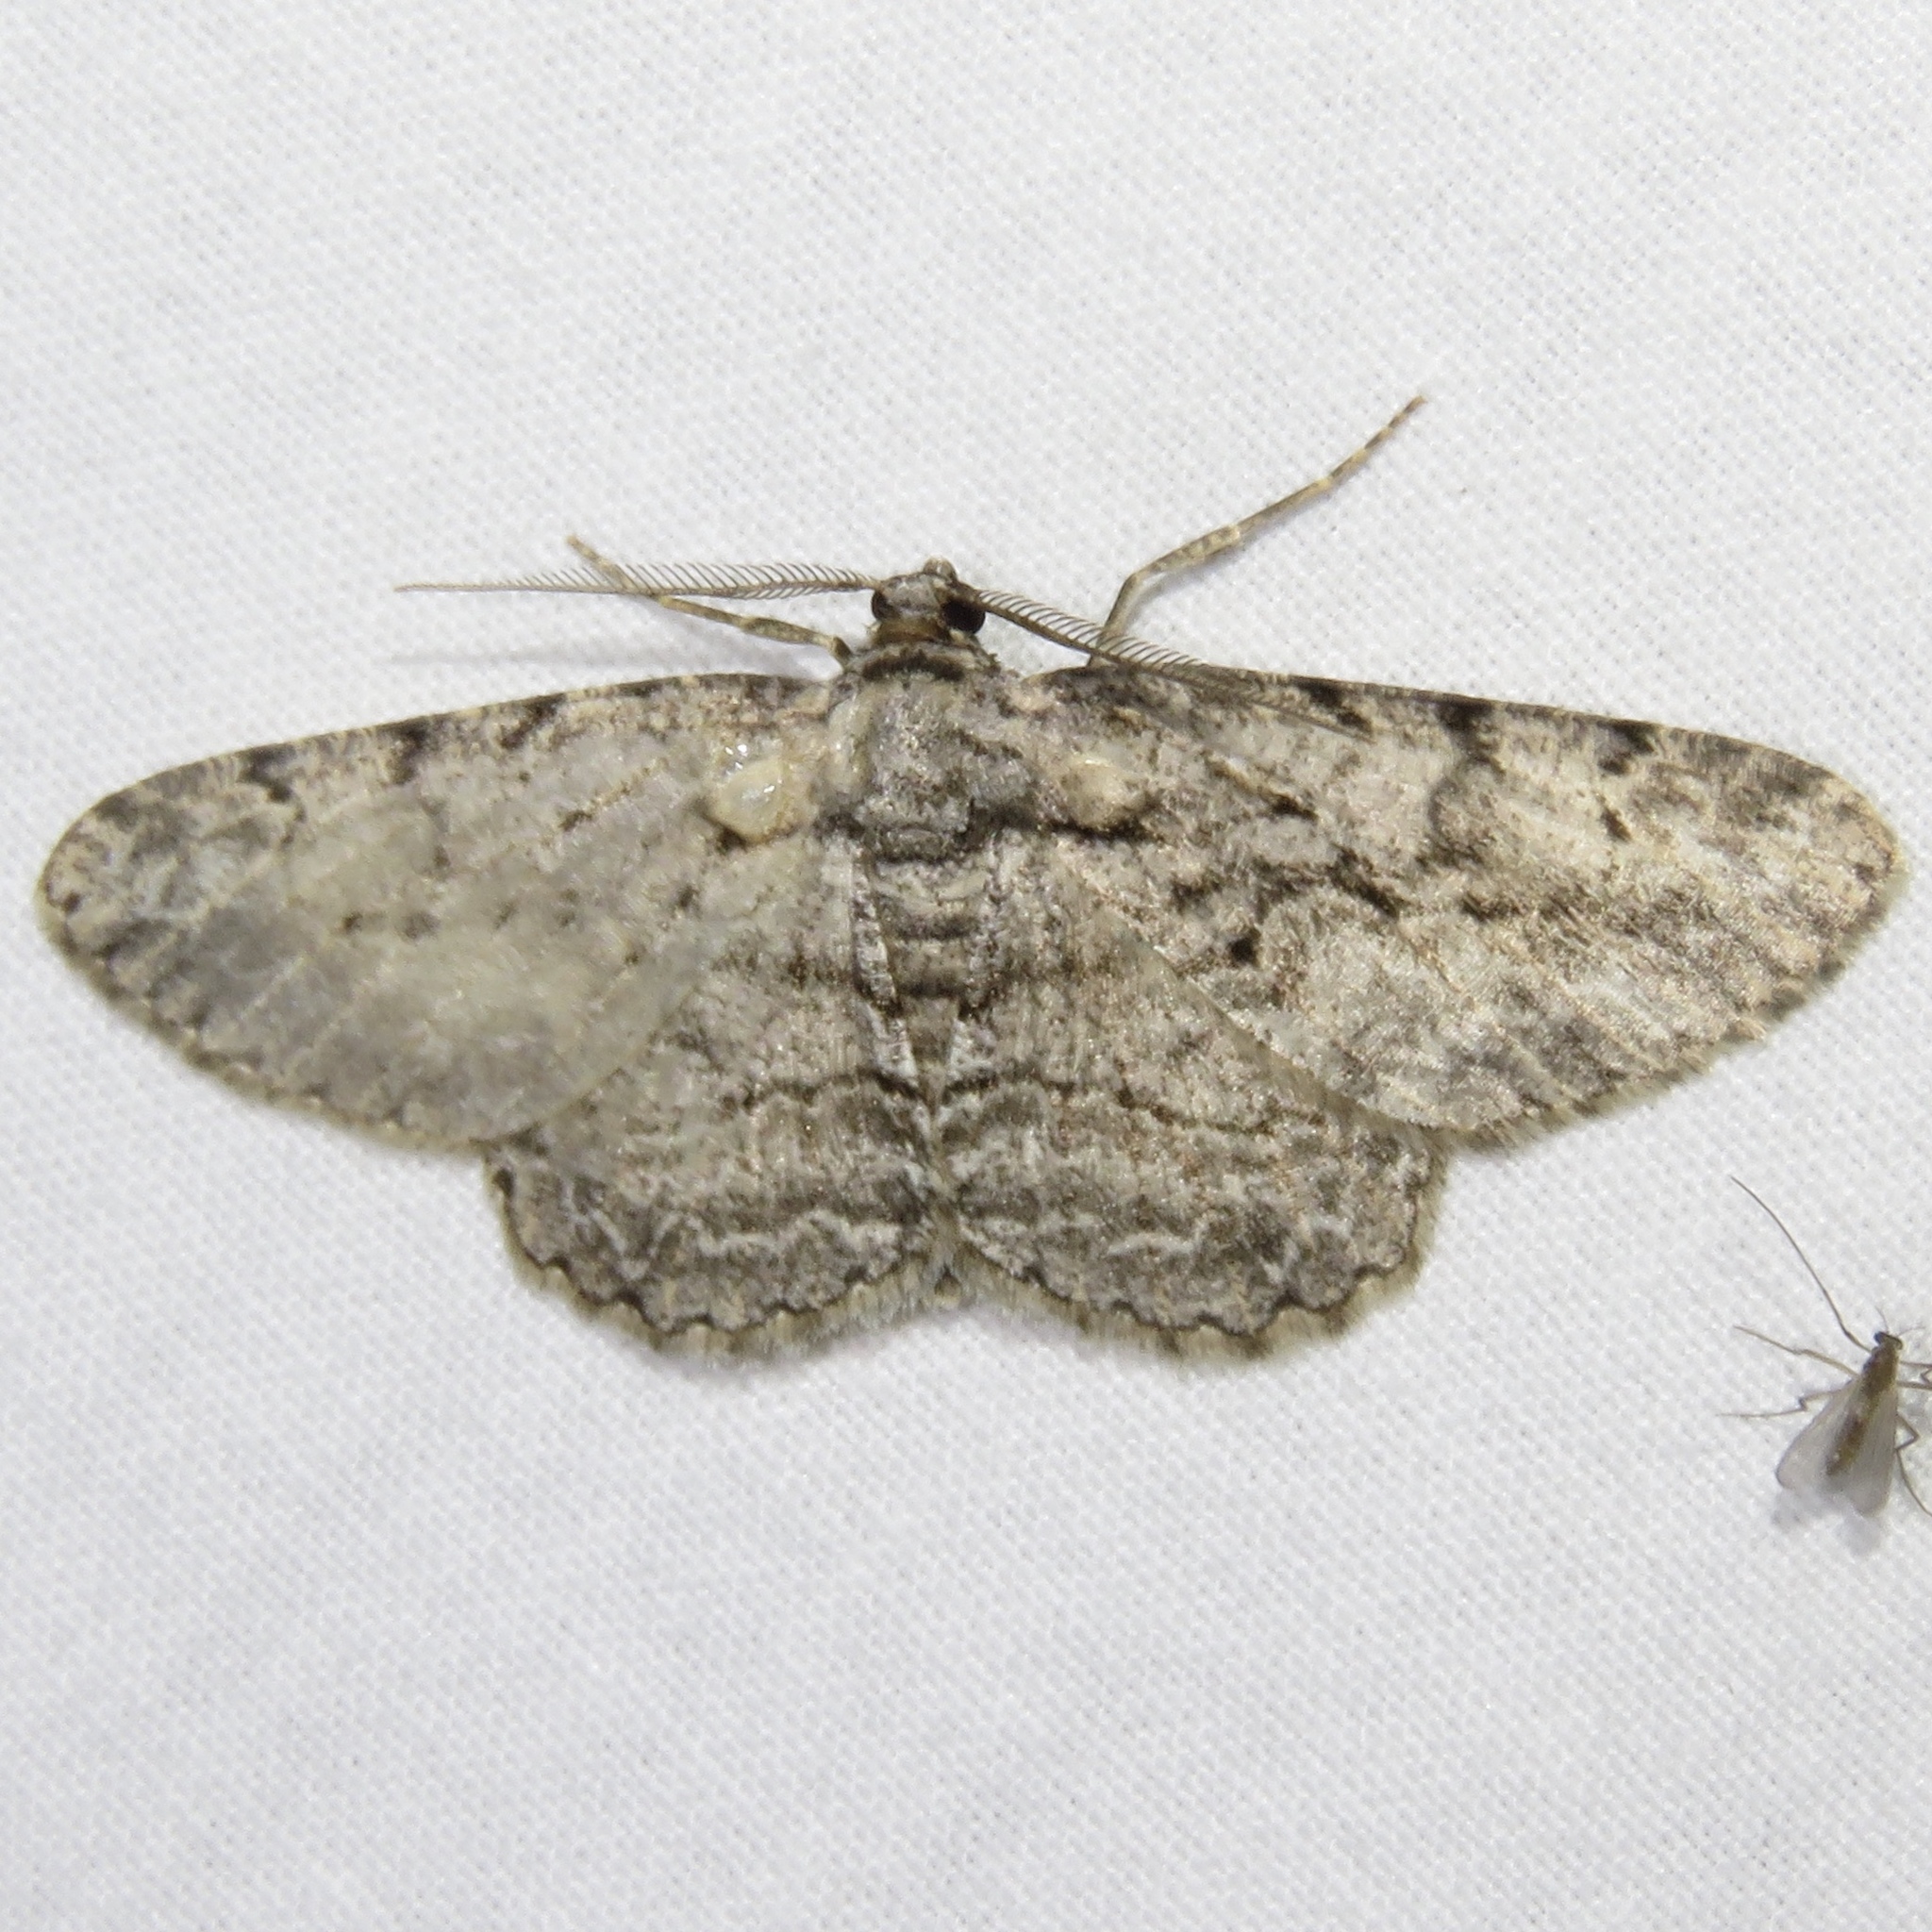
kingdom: Animalia
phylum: Arthropoda
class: Insecta
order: Lepidoptera
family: Geometridae
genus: Anavitrinella
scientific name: Anavitrinella pampinaria
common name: Common gray
